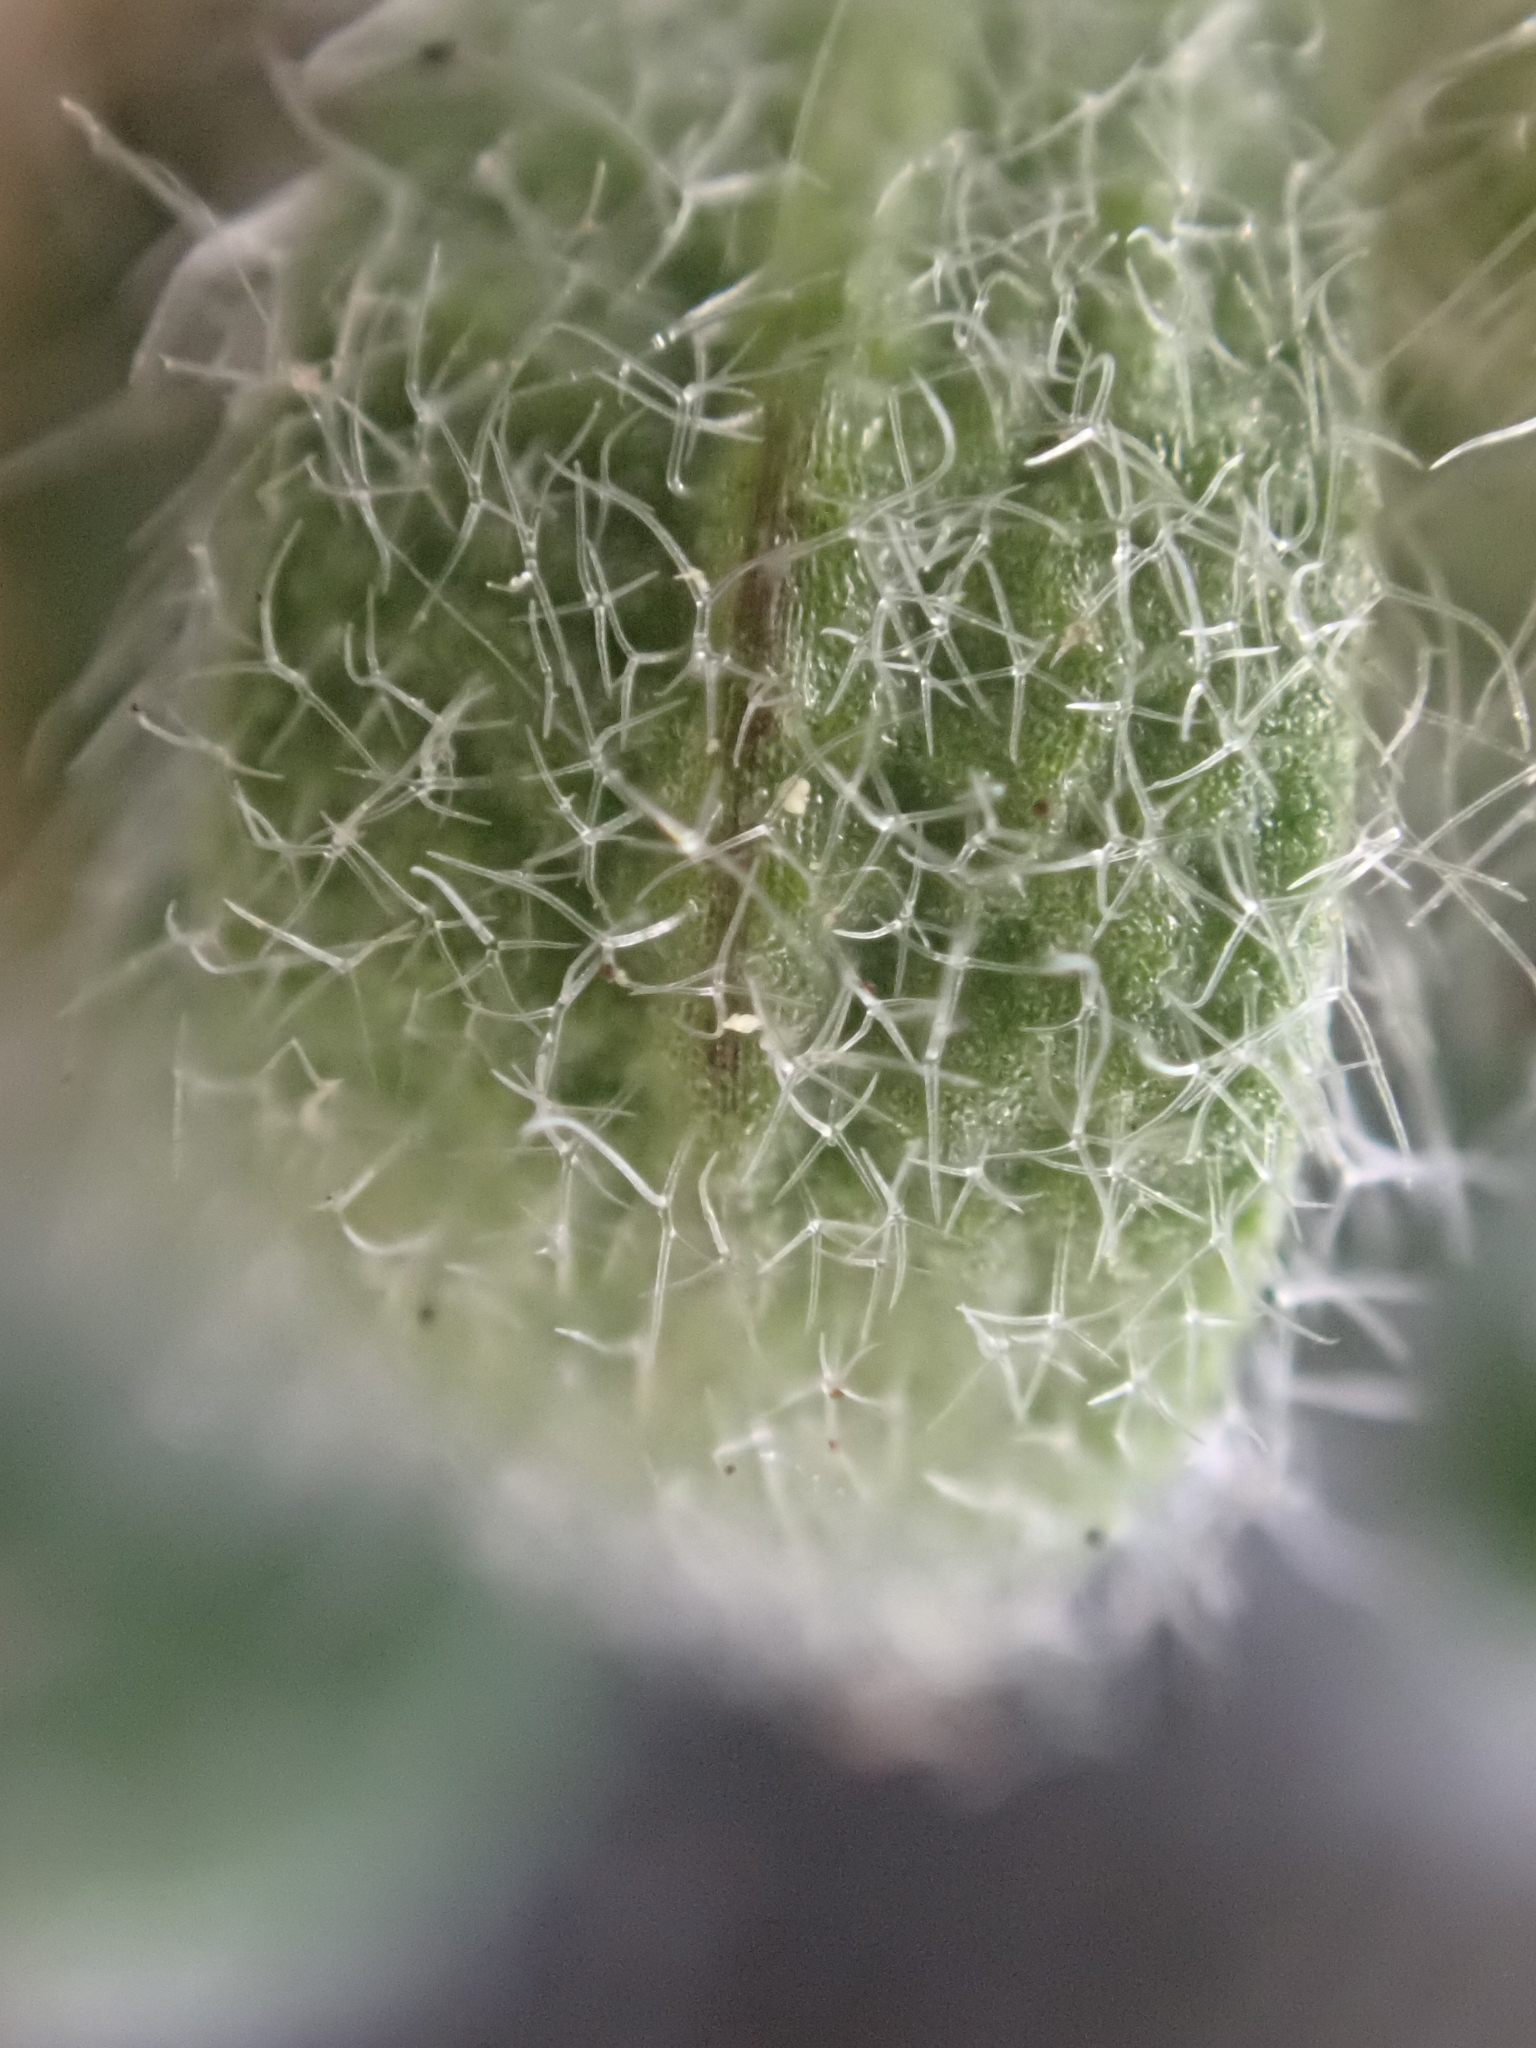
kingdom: Plantae
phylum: Tracheophyta
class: Magnoliopsida
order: Brassicales
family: Brassicaceae
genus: Draba
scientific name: Draba pterosperma
